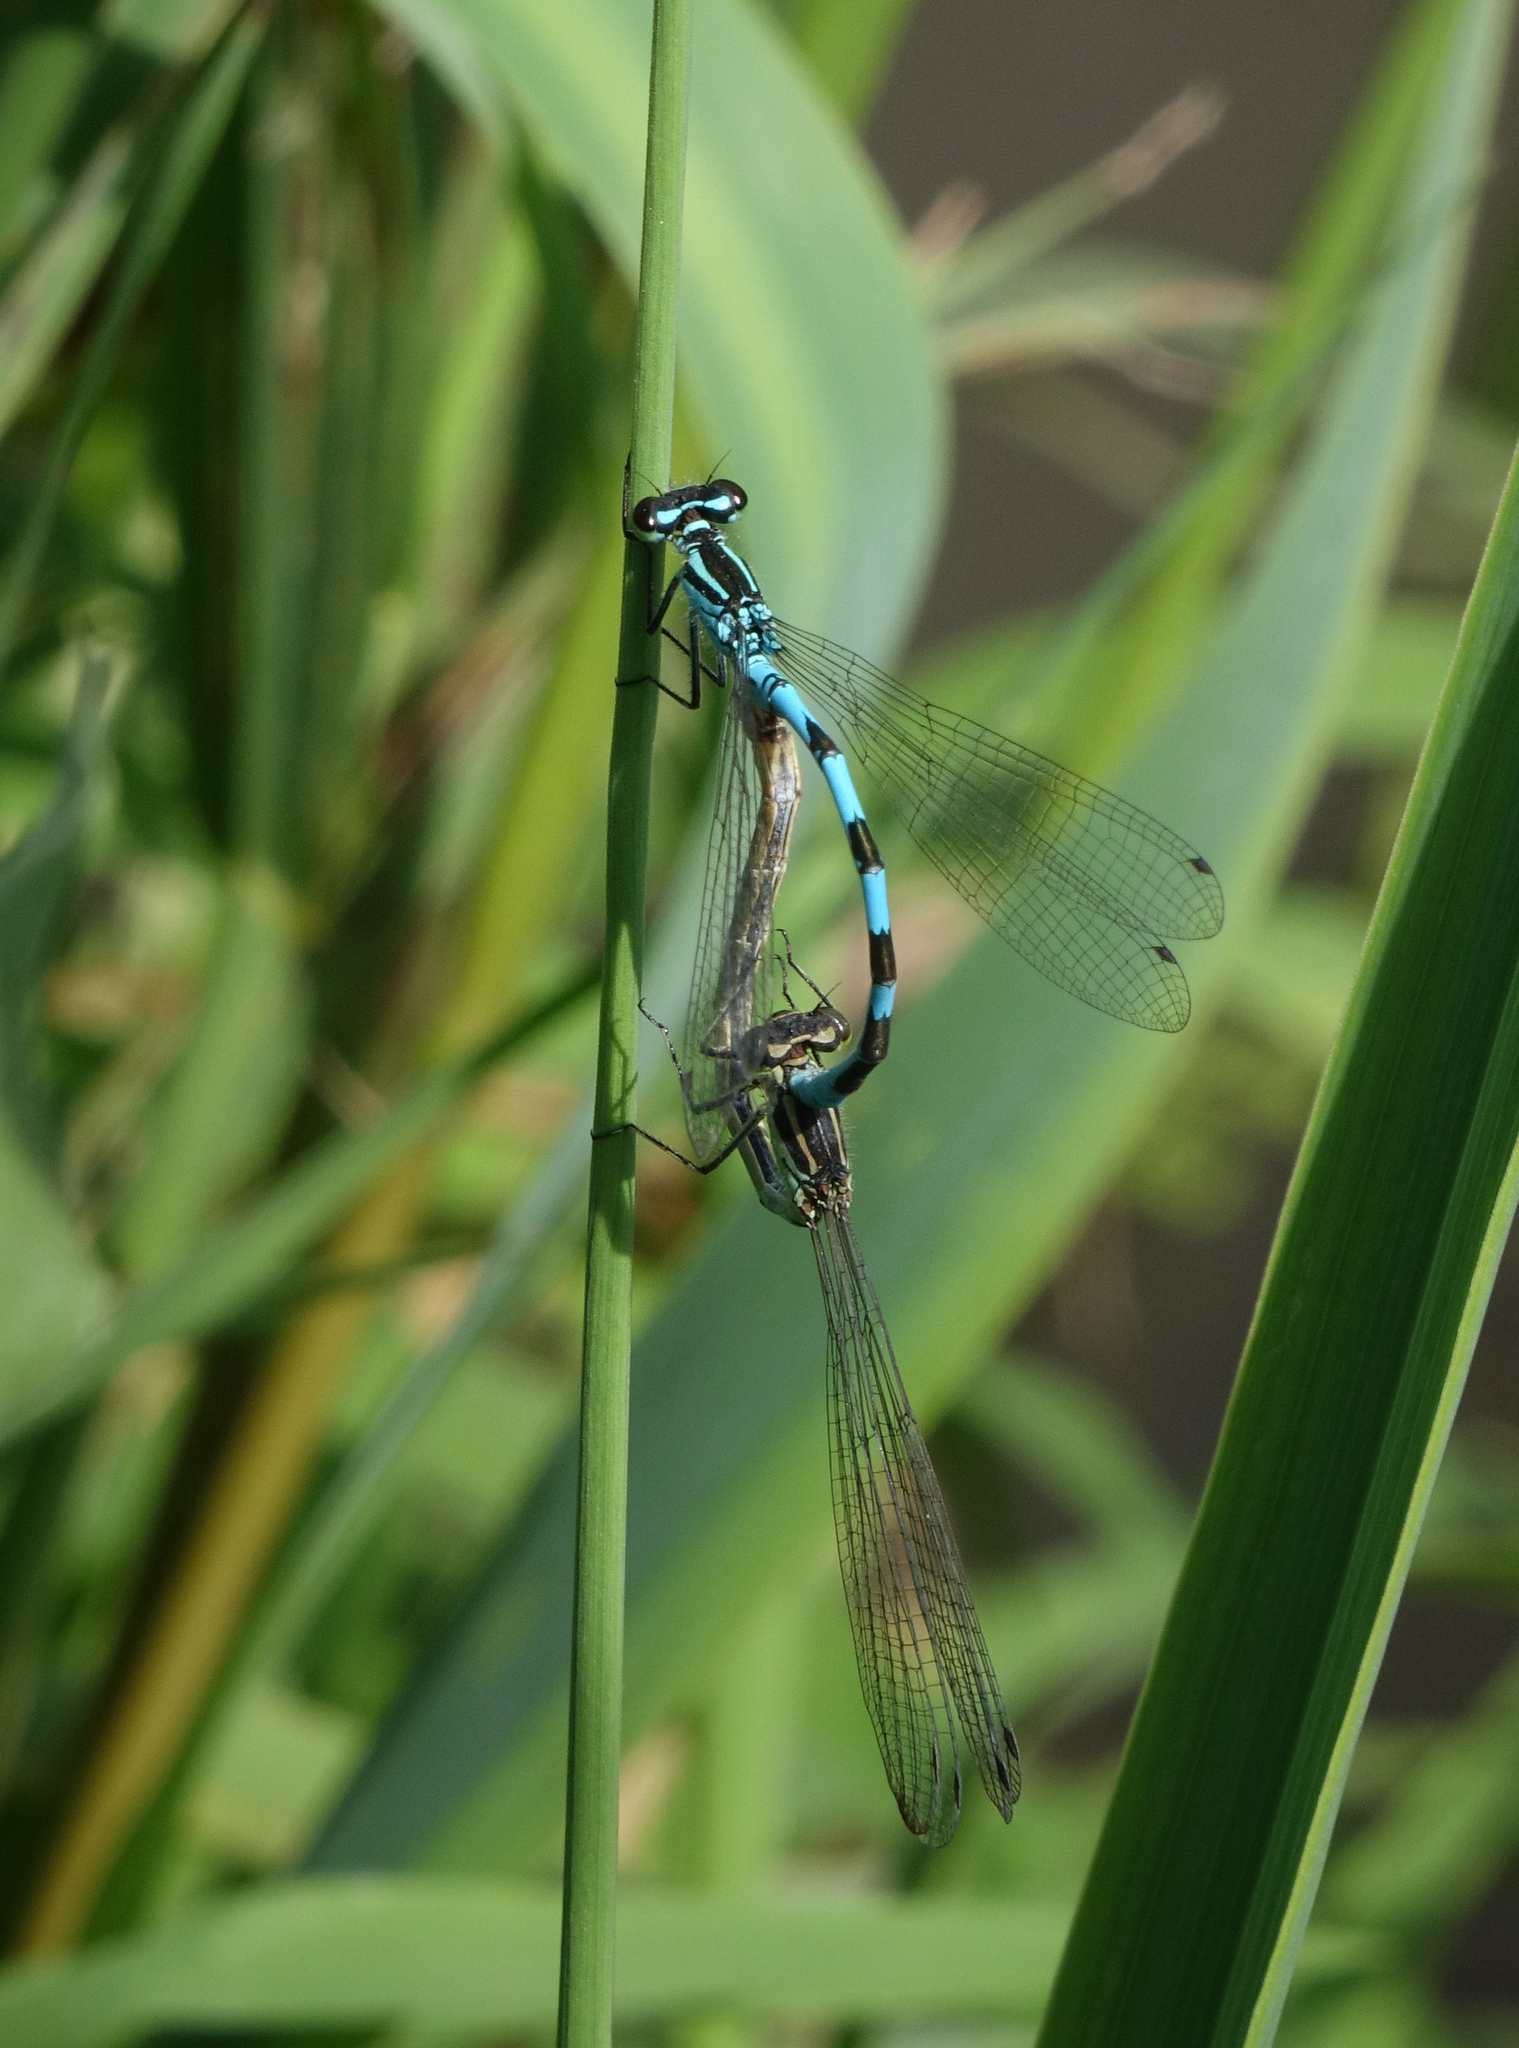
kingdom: Animalia
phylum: Arthropoda
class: Insecta
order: Odonata
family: Coenagrionidae
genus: Coenagrion
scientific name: Coenagrion hastulatum
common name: Spearhead bluet
